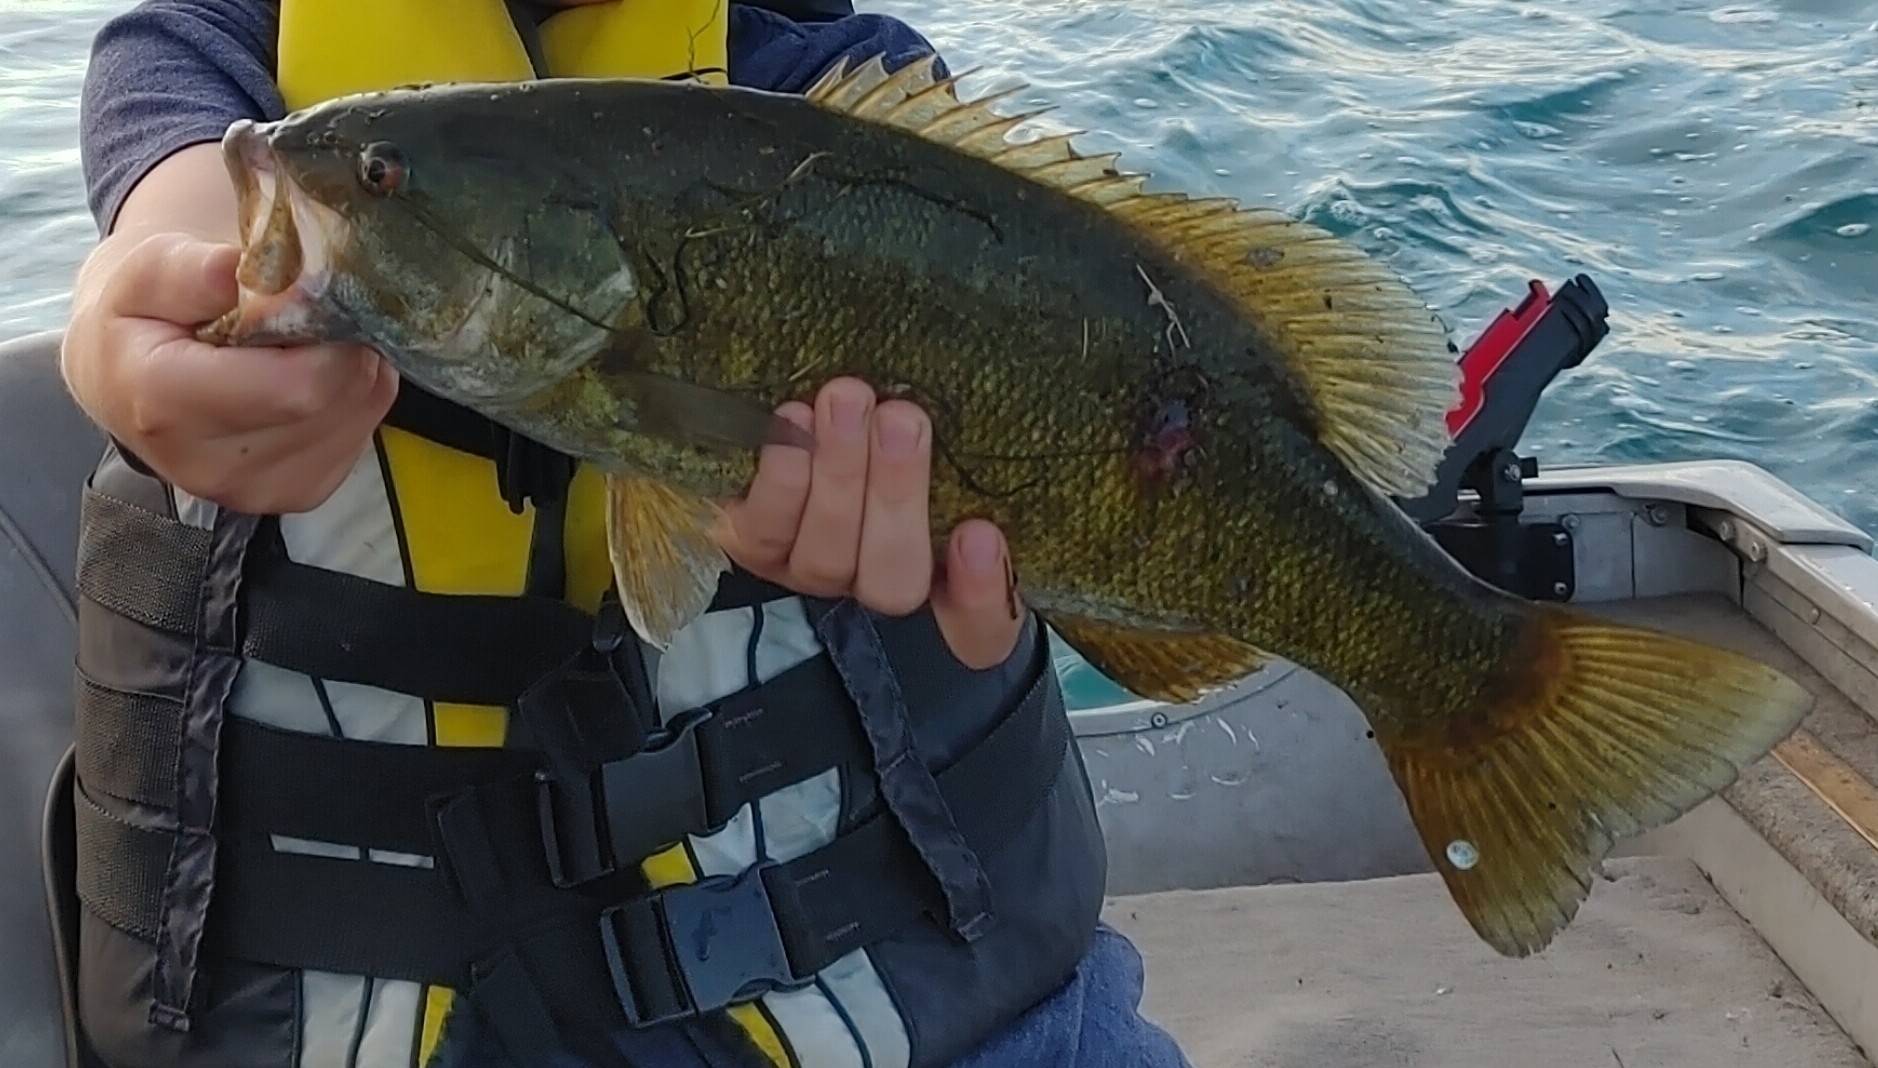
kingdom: Animalia
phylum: Chordata
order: Perciformes
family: Centrarchidae
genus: Micropterus
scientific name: Micropterus dolomieu
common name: Smallmouth bass
